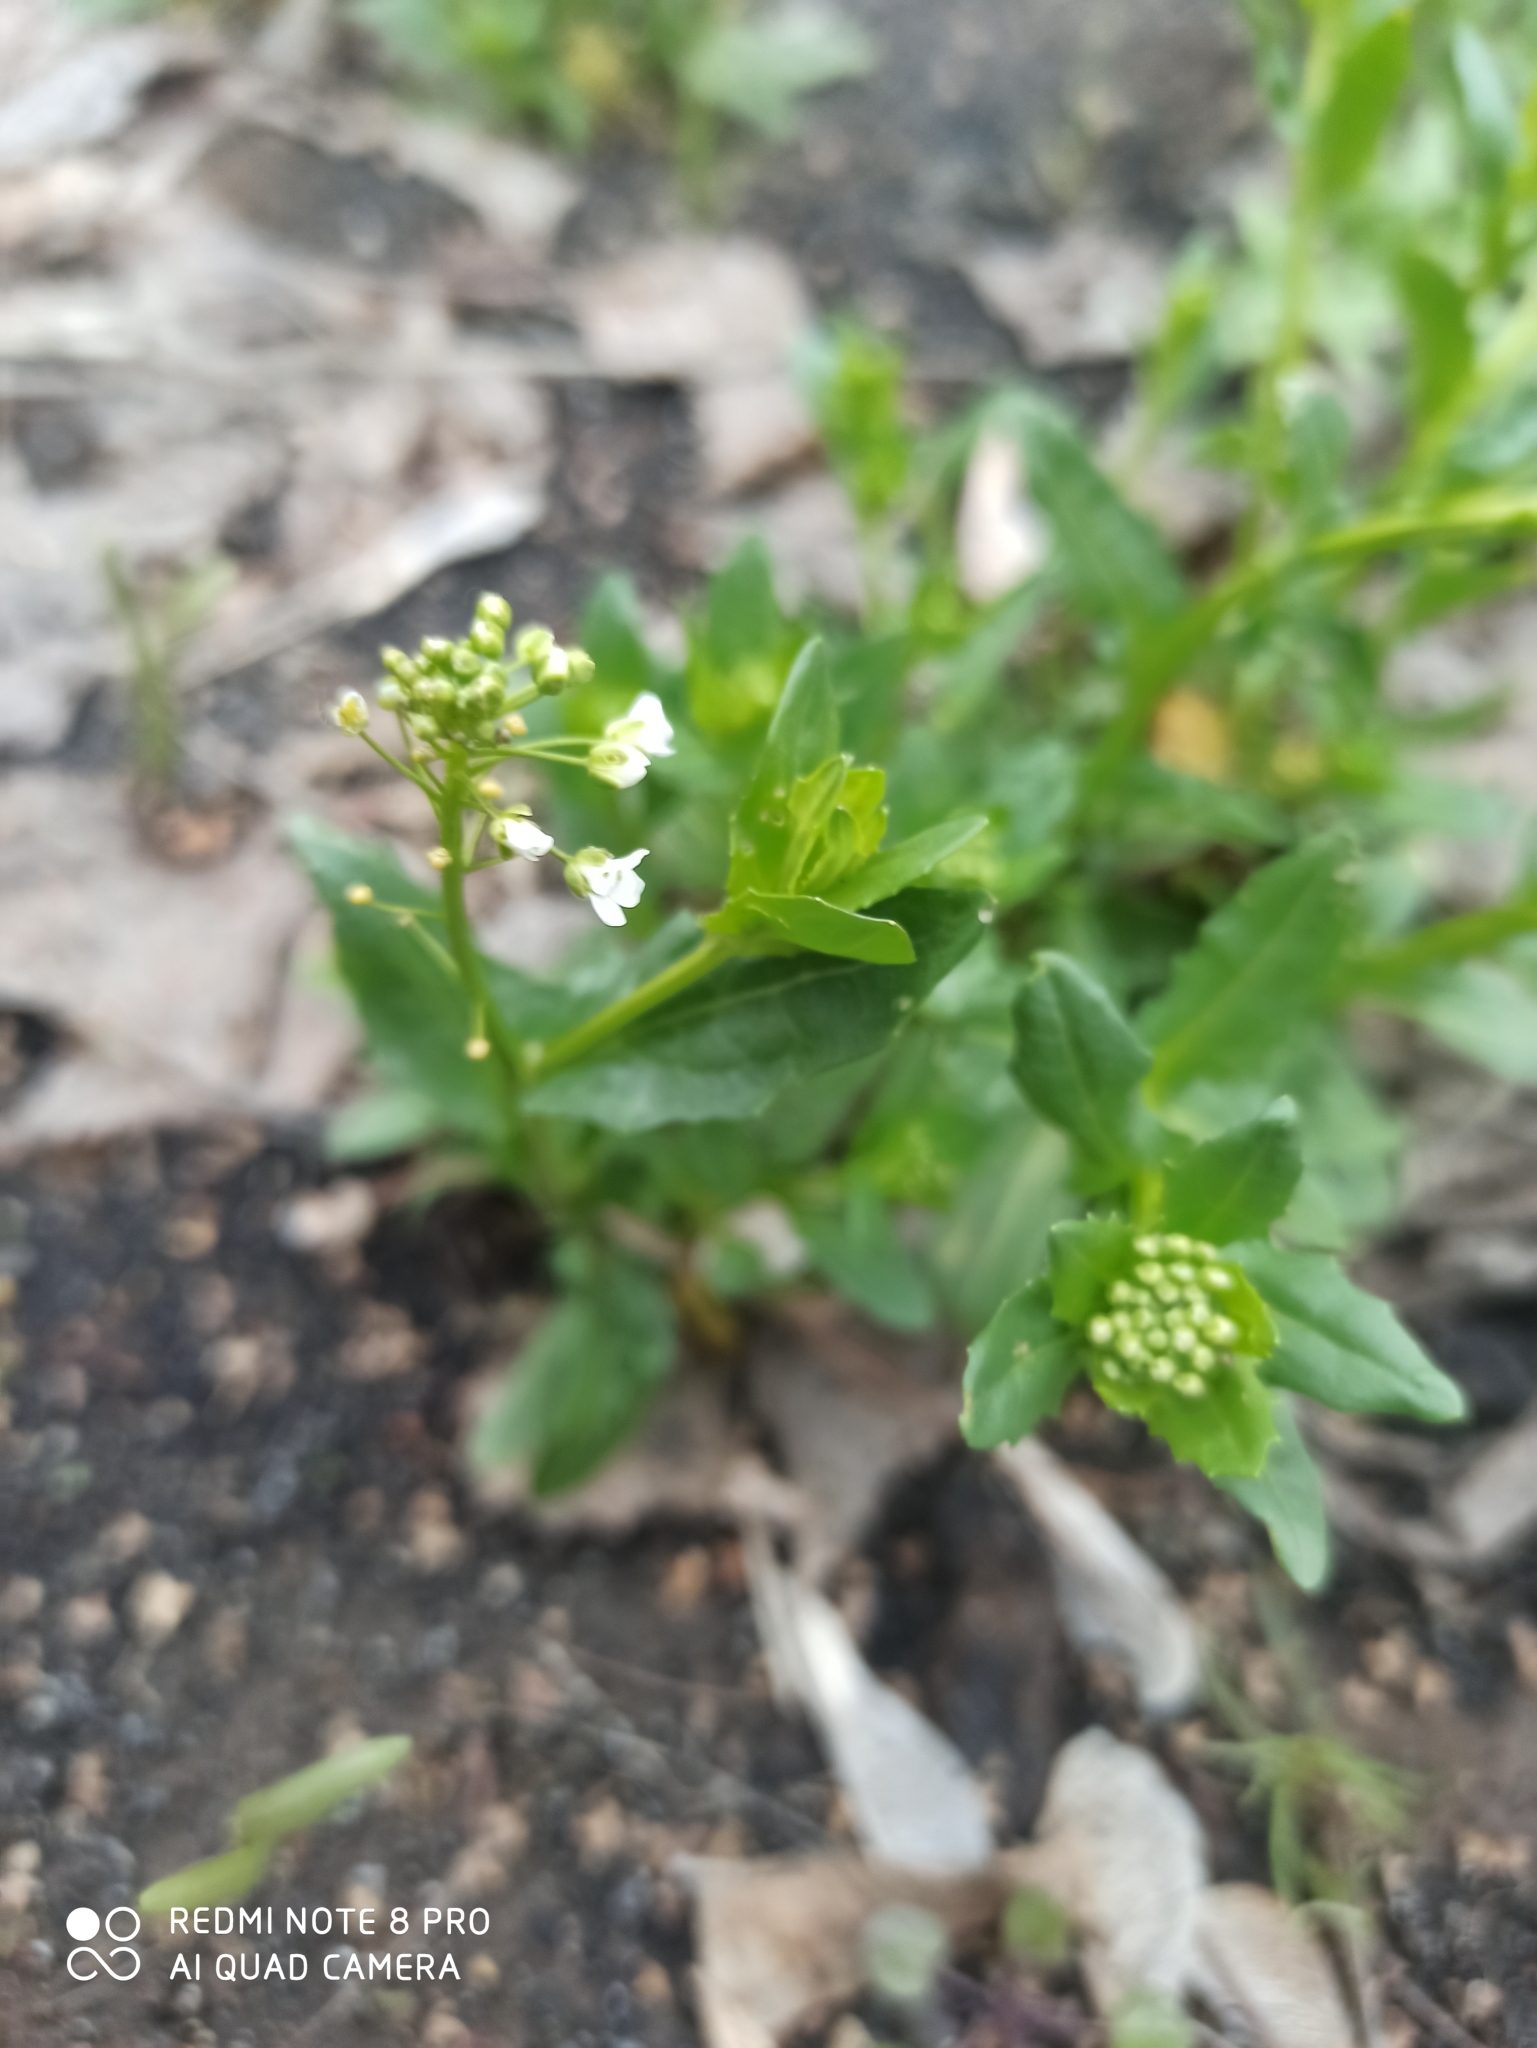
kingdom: Plantae
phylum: Tracheophyta
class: Magnoliopsida
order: Brassicales
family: Brassicaceae
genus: Thlaspi
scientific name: Thlaspi arvense
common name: Field pennycress
